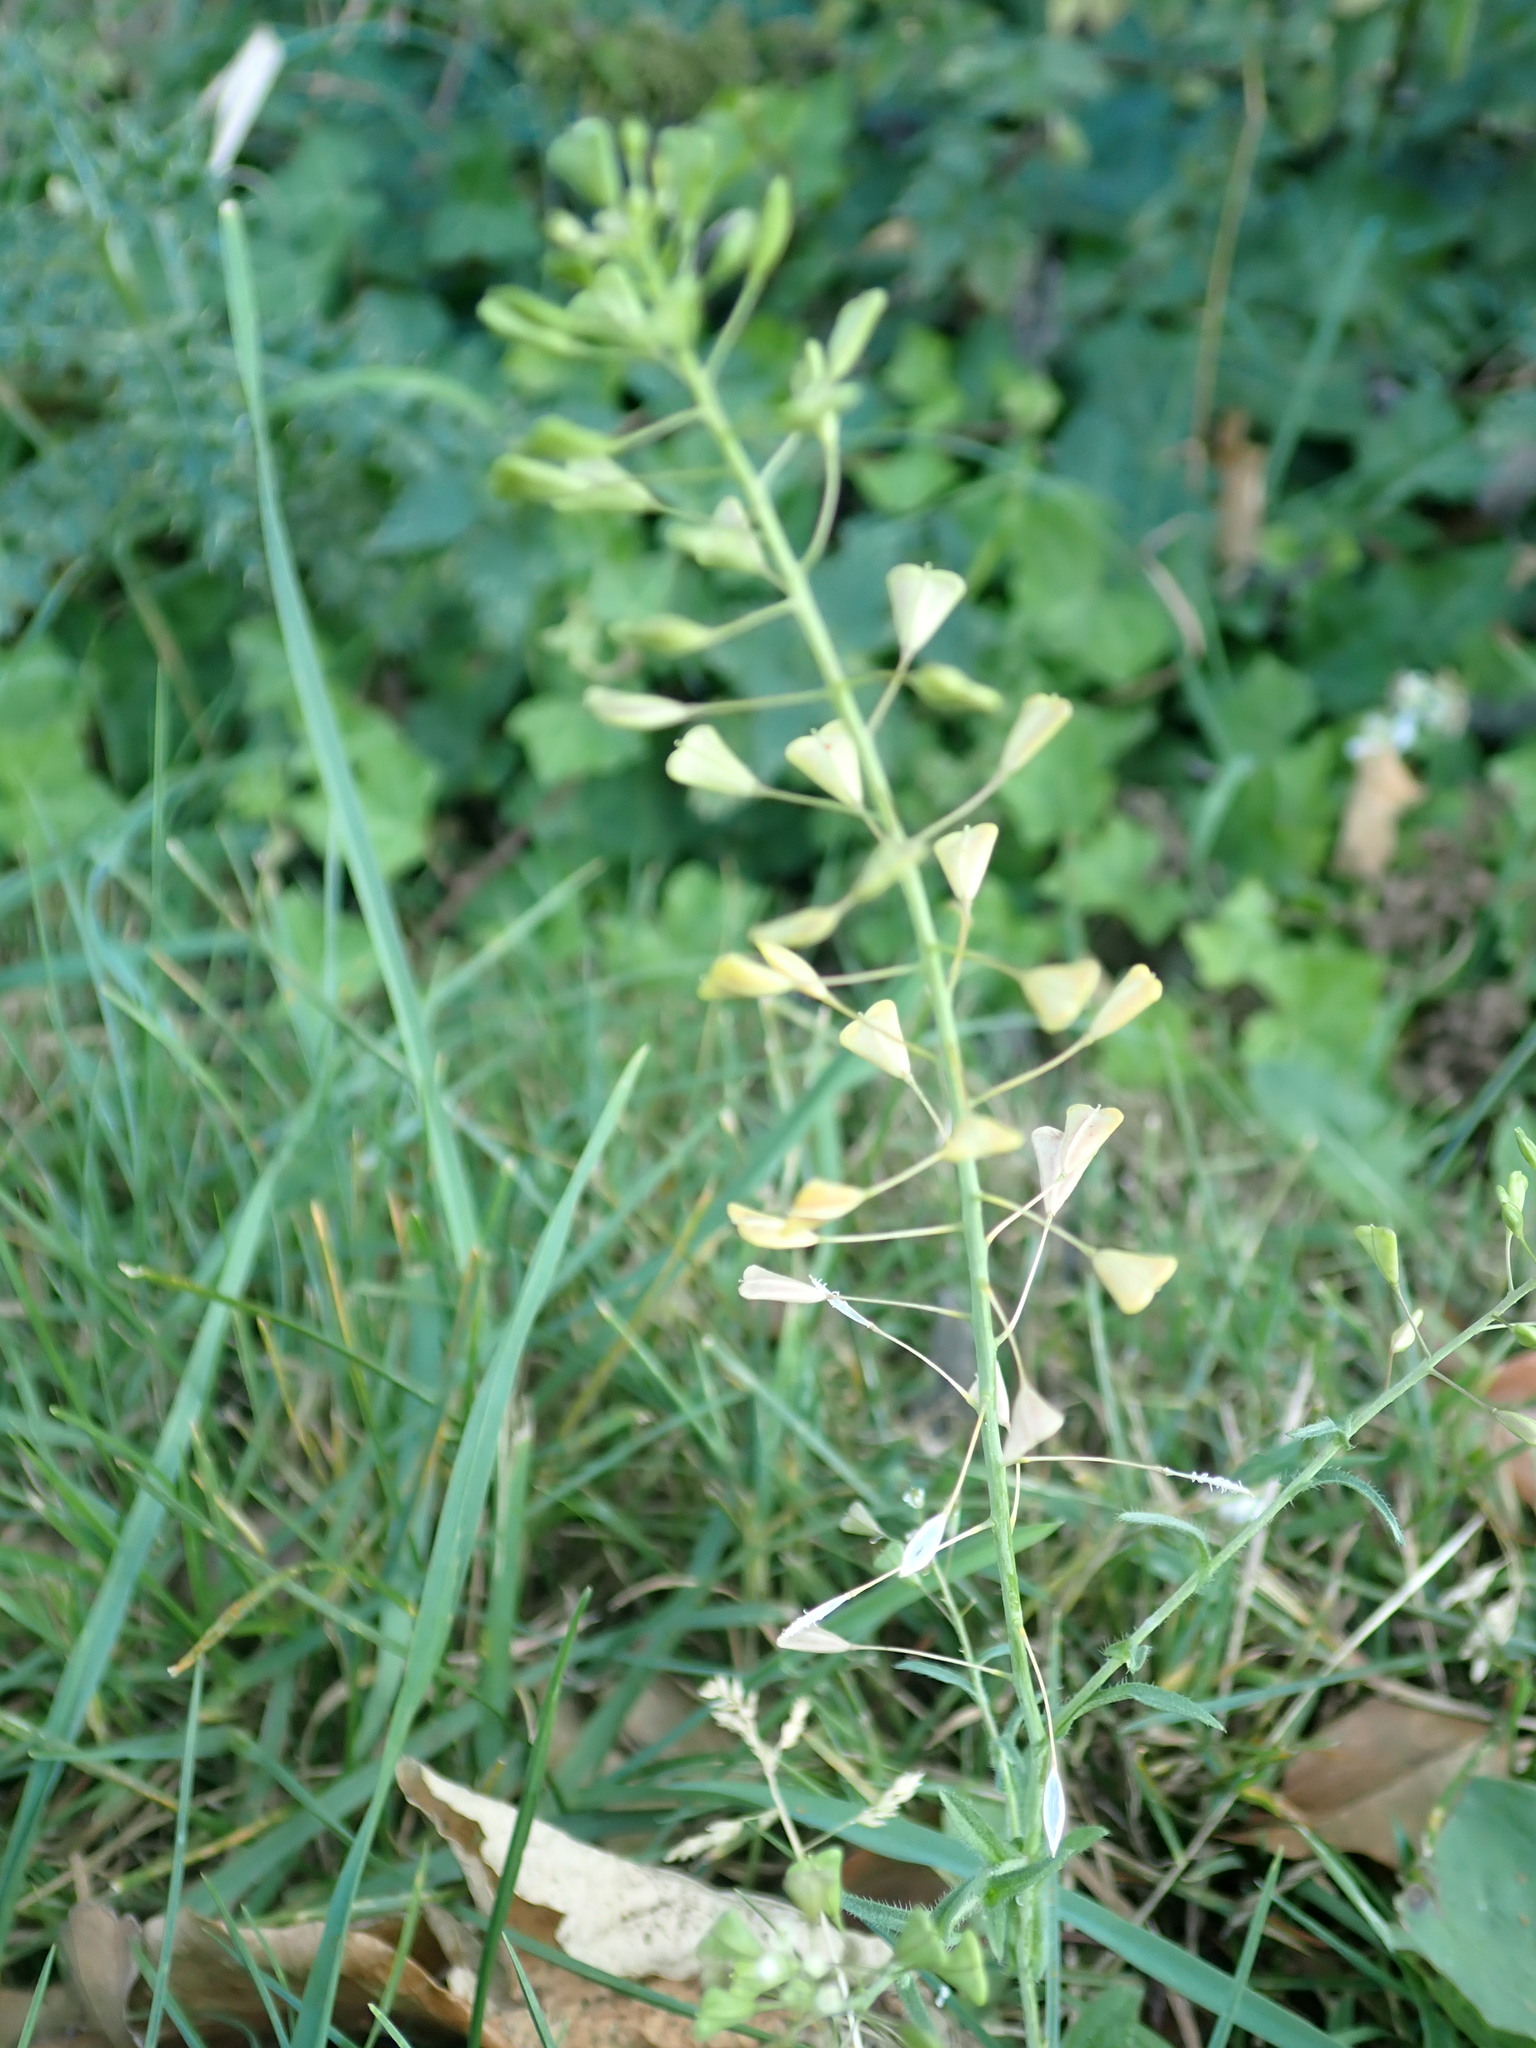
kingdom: Plantae
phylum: Tracheophyta
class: Magnoliopsida
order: Brassicales
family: Brassicaceae
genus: Capsella
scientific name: Capsella bursa-pastoris
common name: Shepherd's purse
